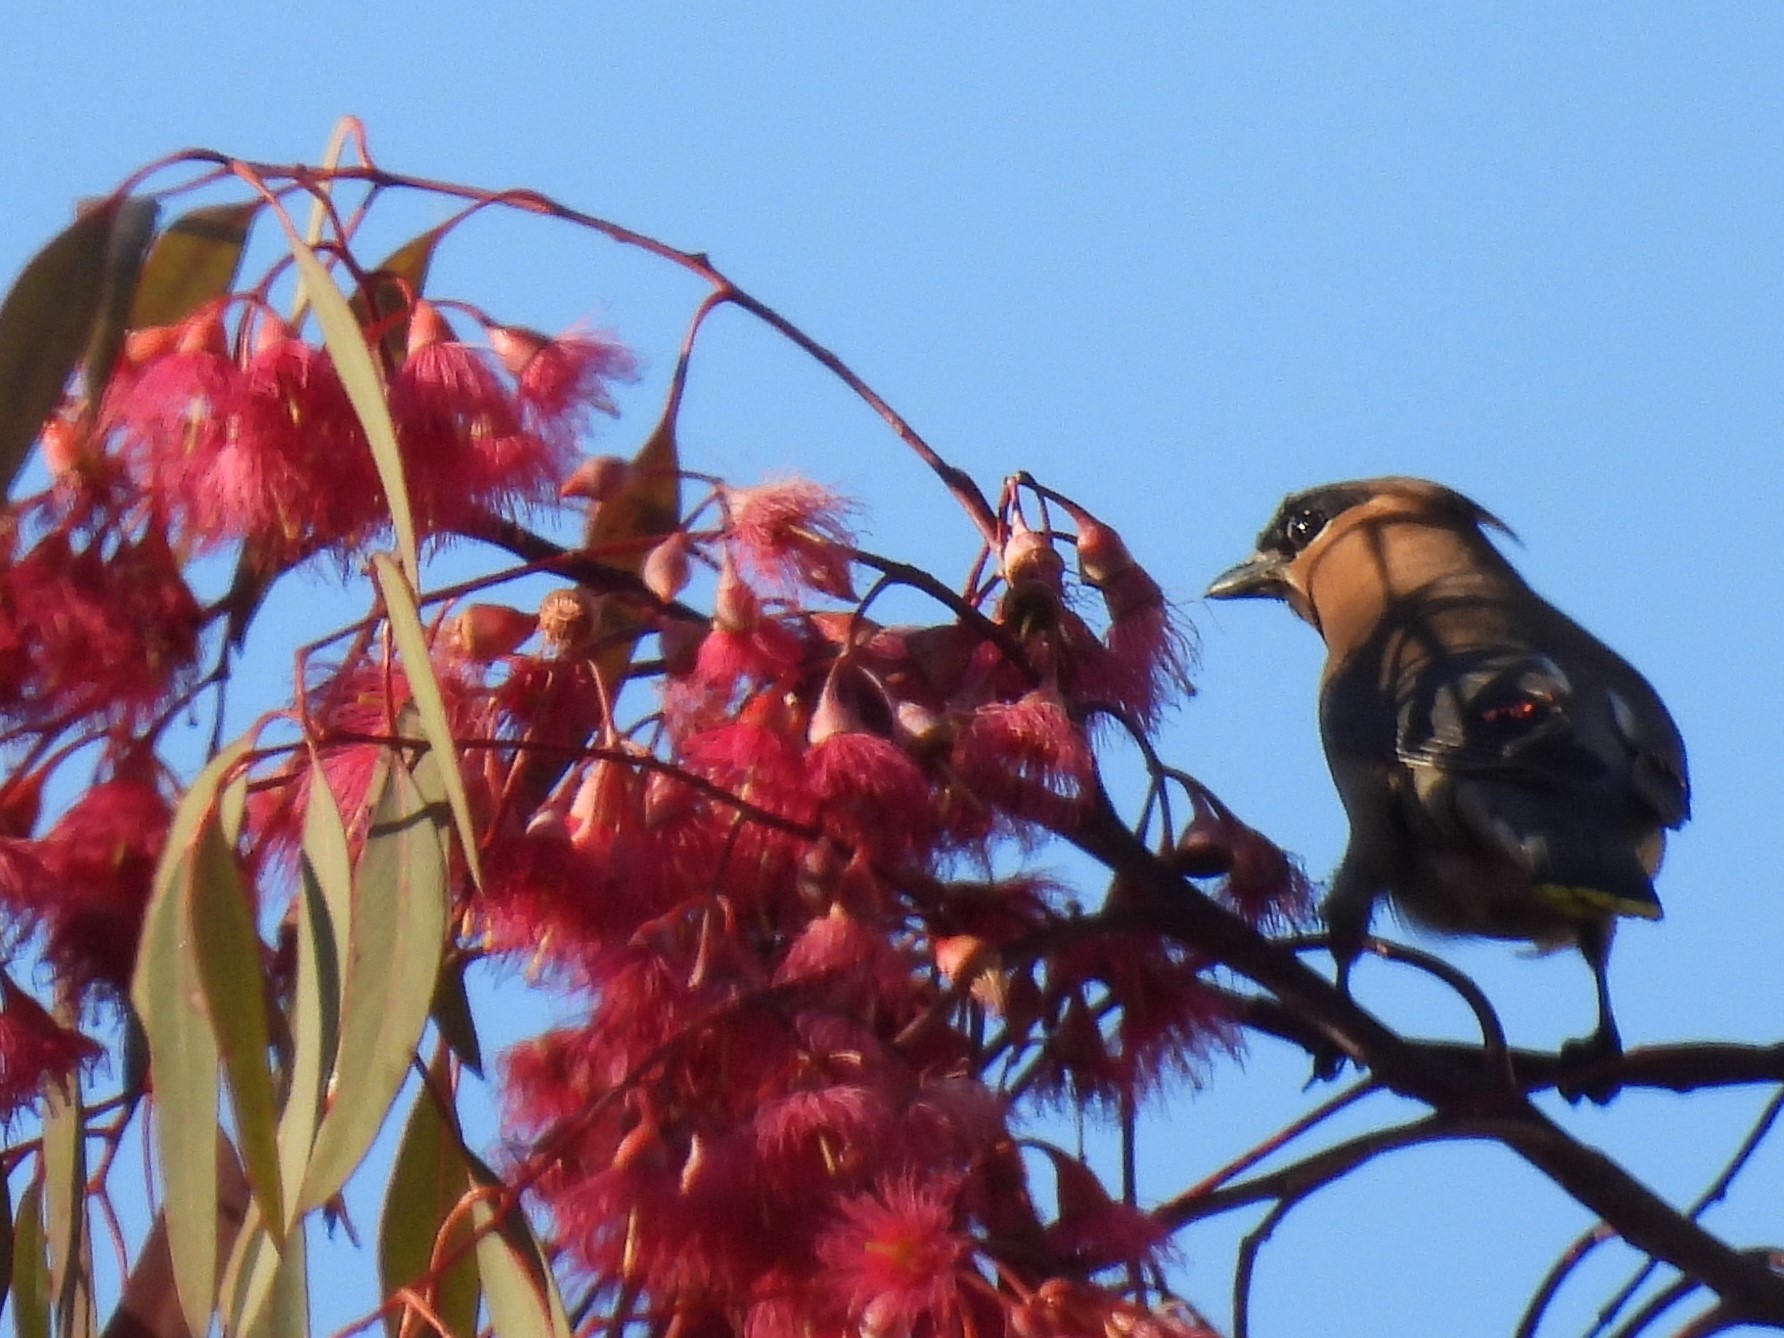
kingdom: Animalia
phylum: Chordata
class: Aves
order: Passeriformes
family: Bombycillidae
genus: Bombycilla
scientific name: Bombycilla cedrorum
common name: Cedar waxwing
